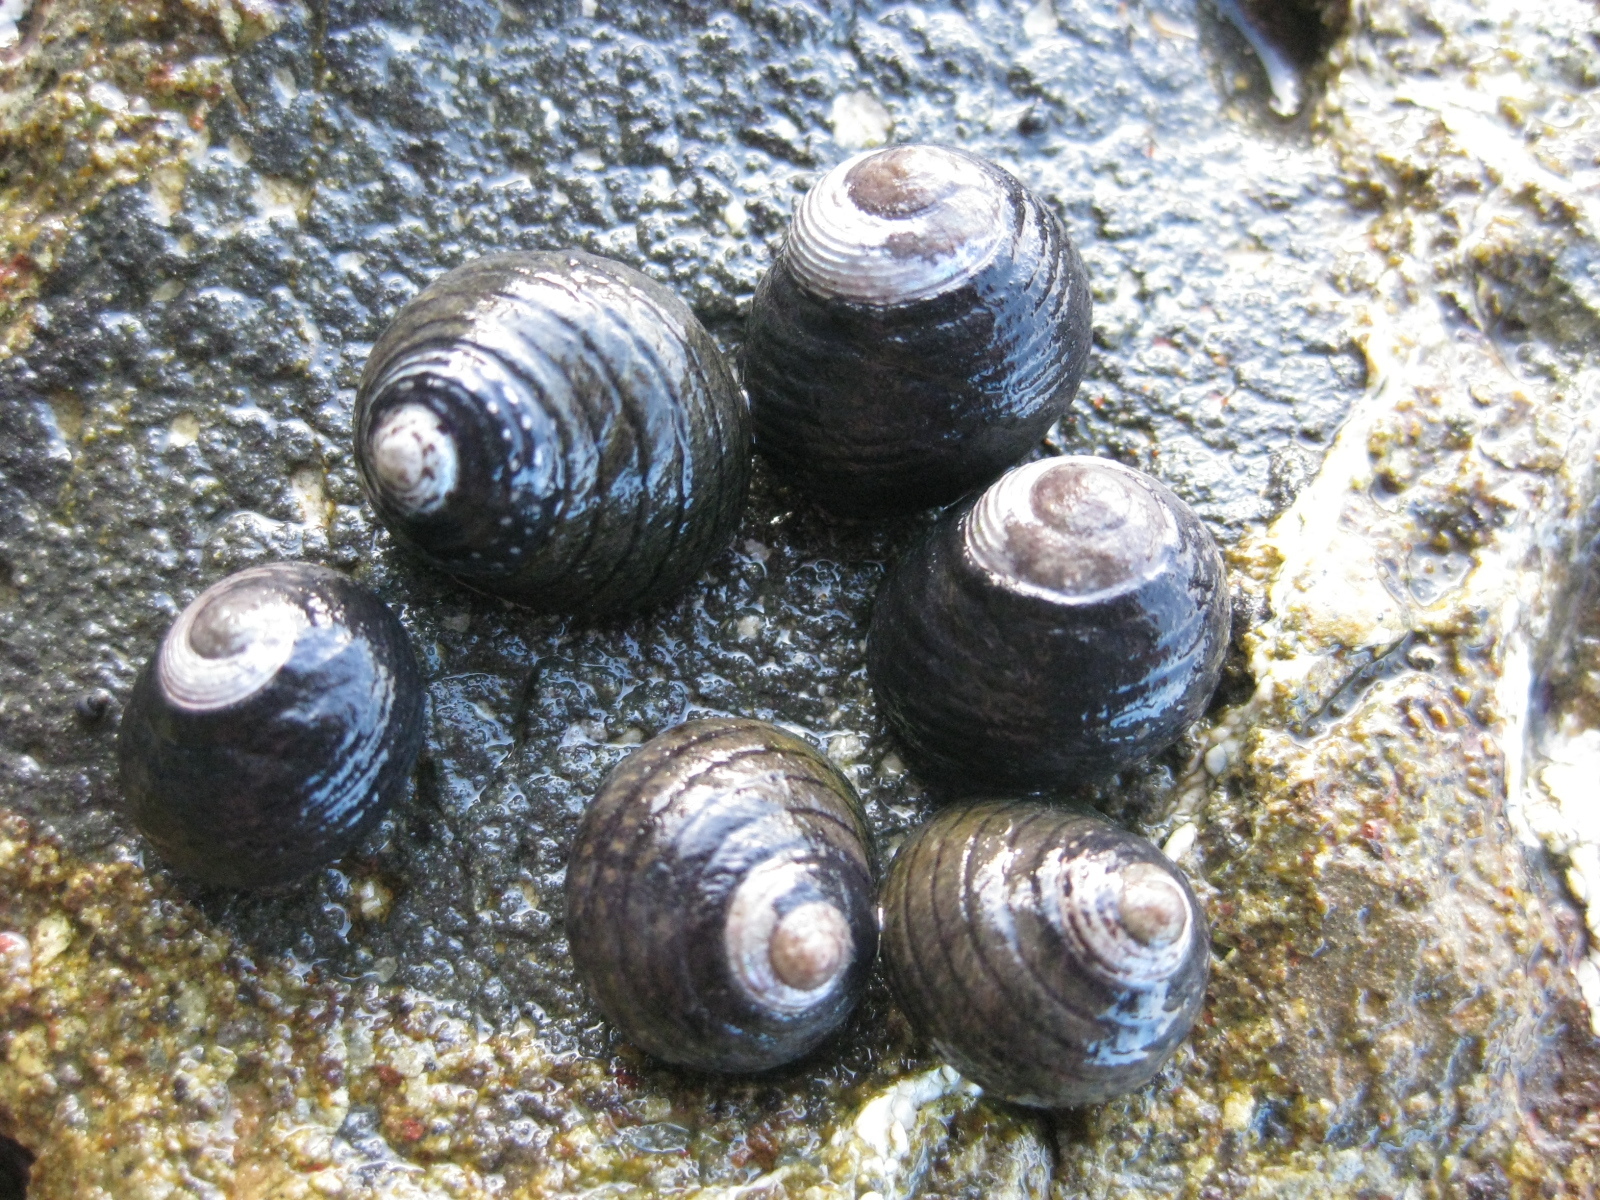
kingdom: Animalia
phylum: Mollusca
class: Gastropoda
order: Trochida
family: Trochidae
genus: Diloma
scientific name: Diloma zelandicum
